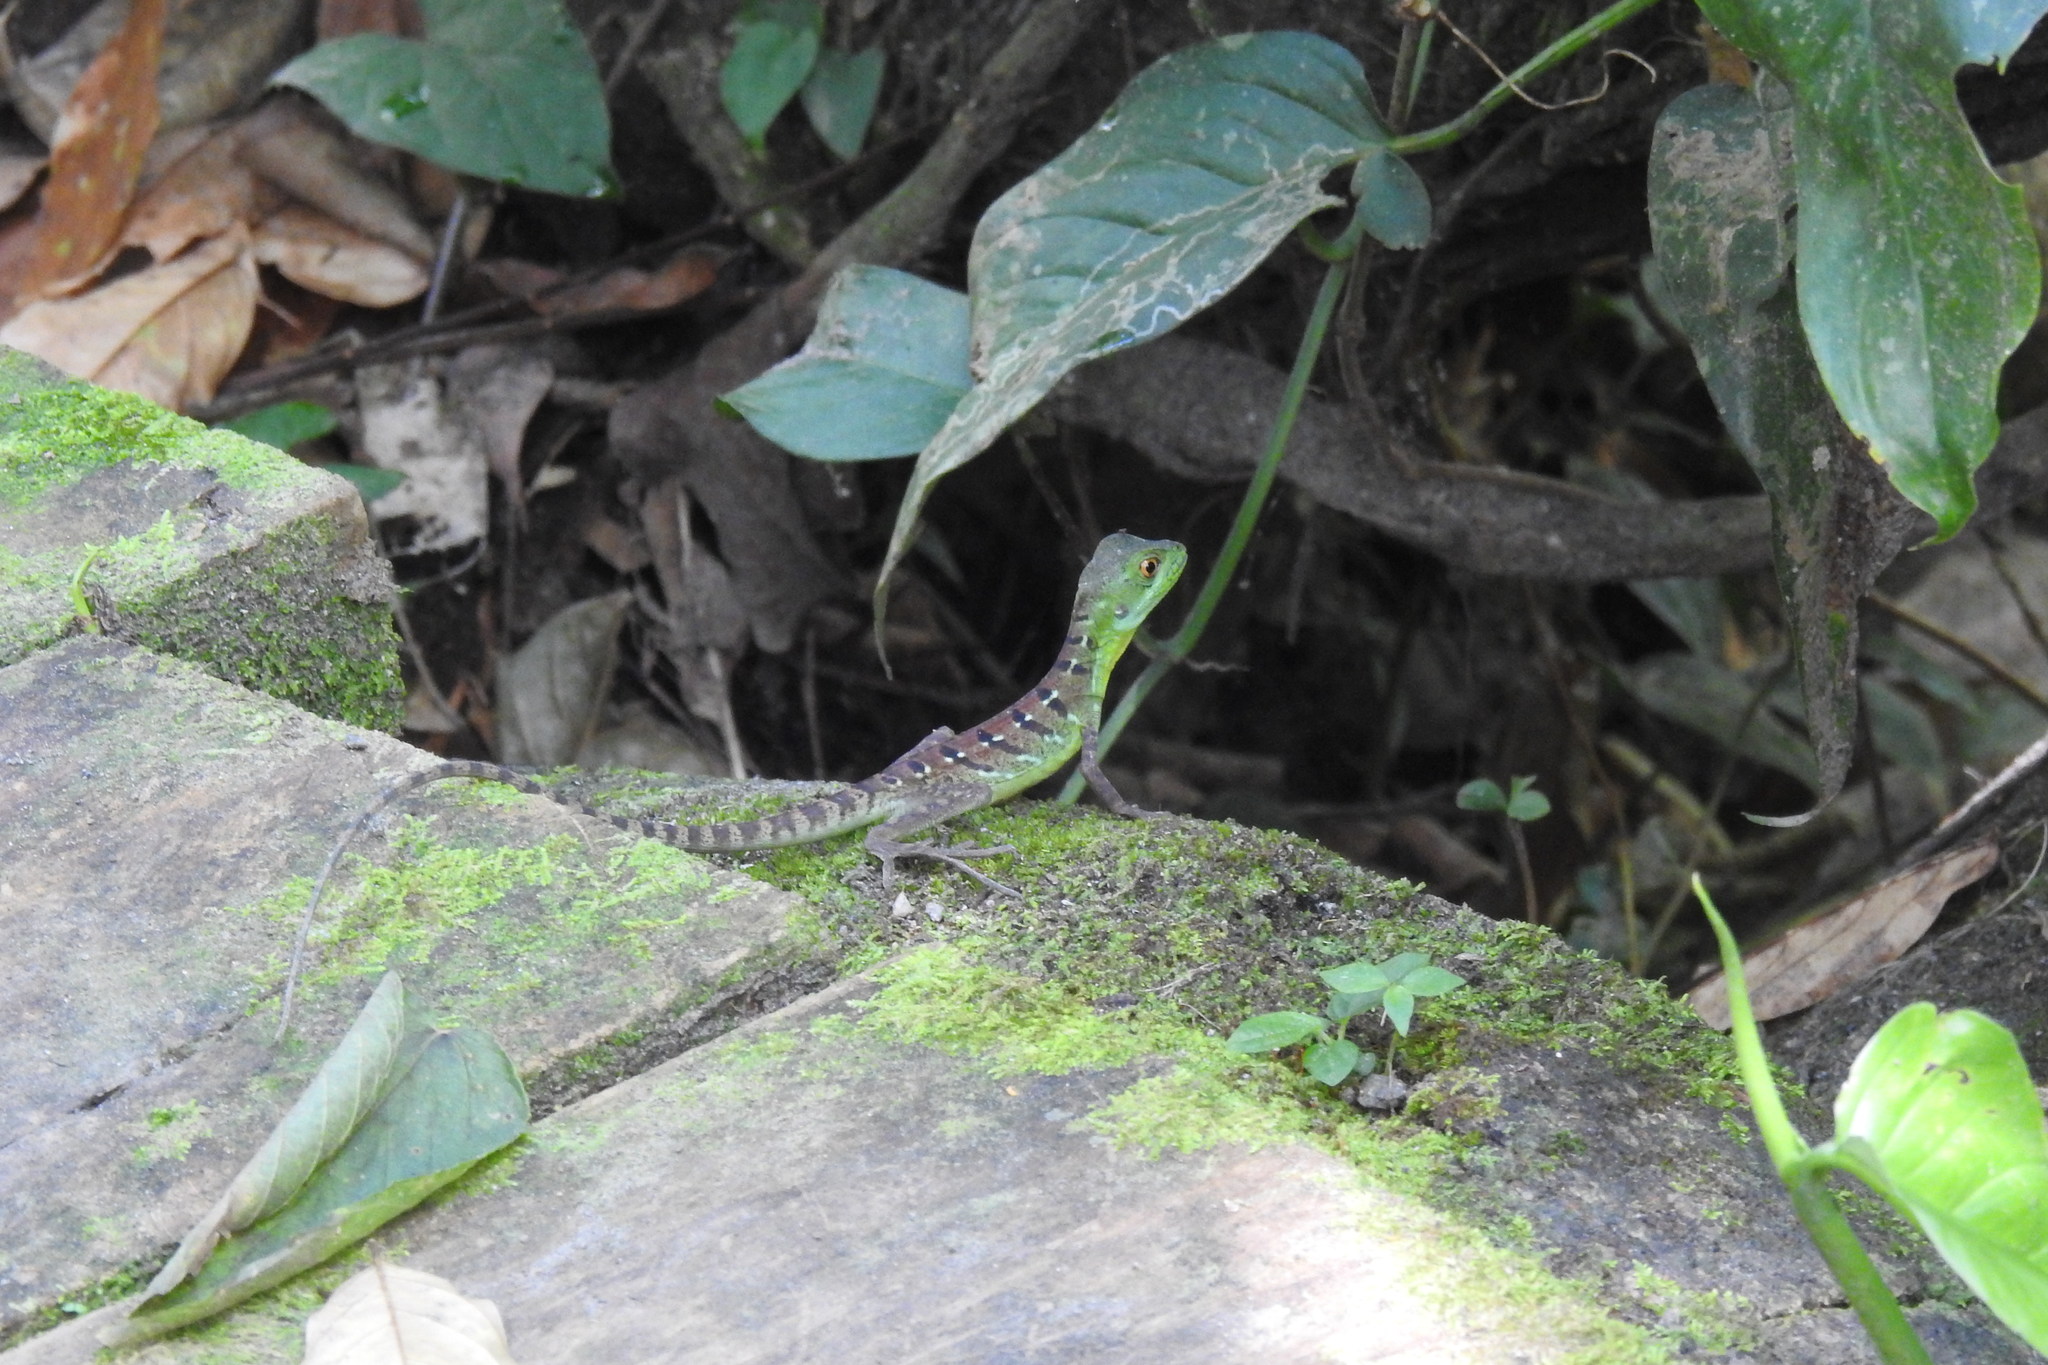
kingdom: Animalia
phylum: Chordata
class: Squamata
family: Corytophanidae
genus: Basiliscus
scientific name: Basiliscus plumifrons
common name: Green basilisk
